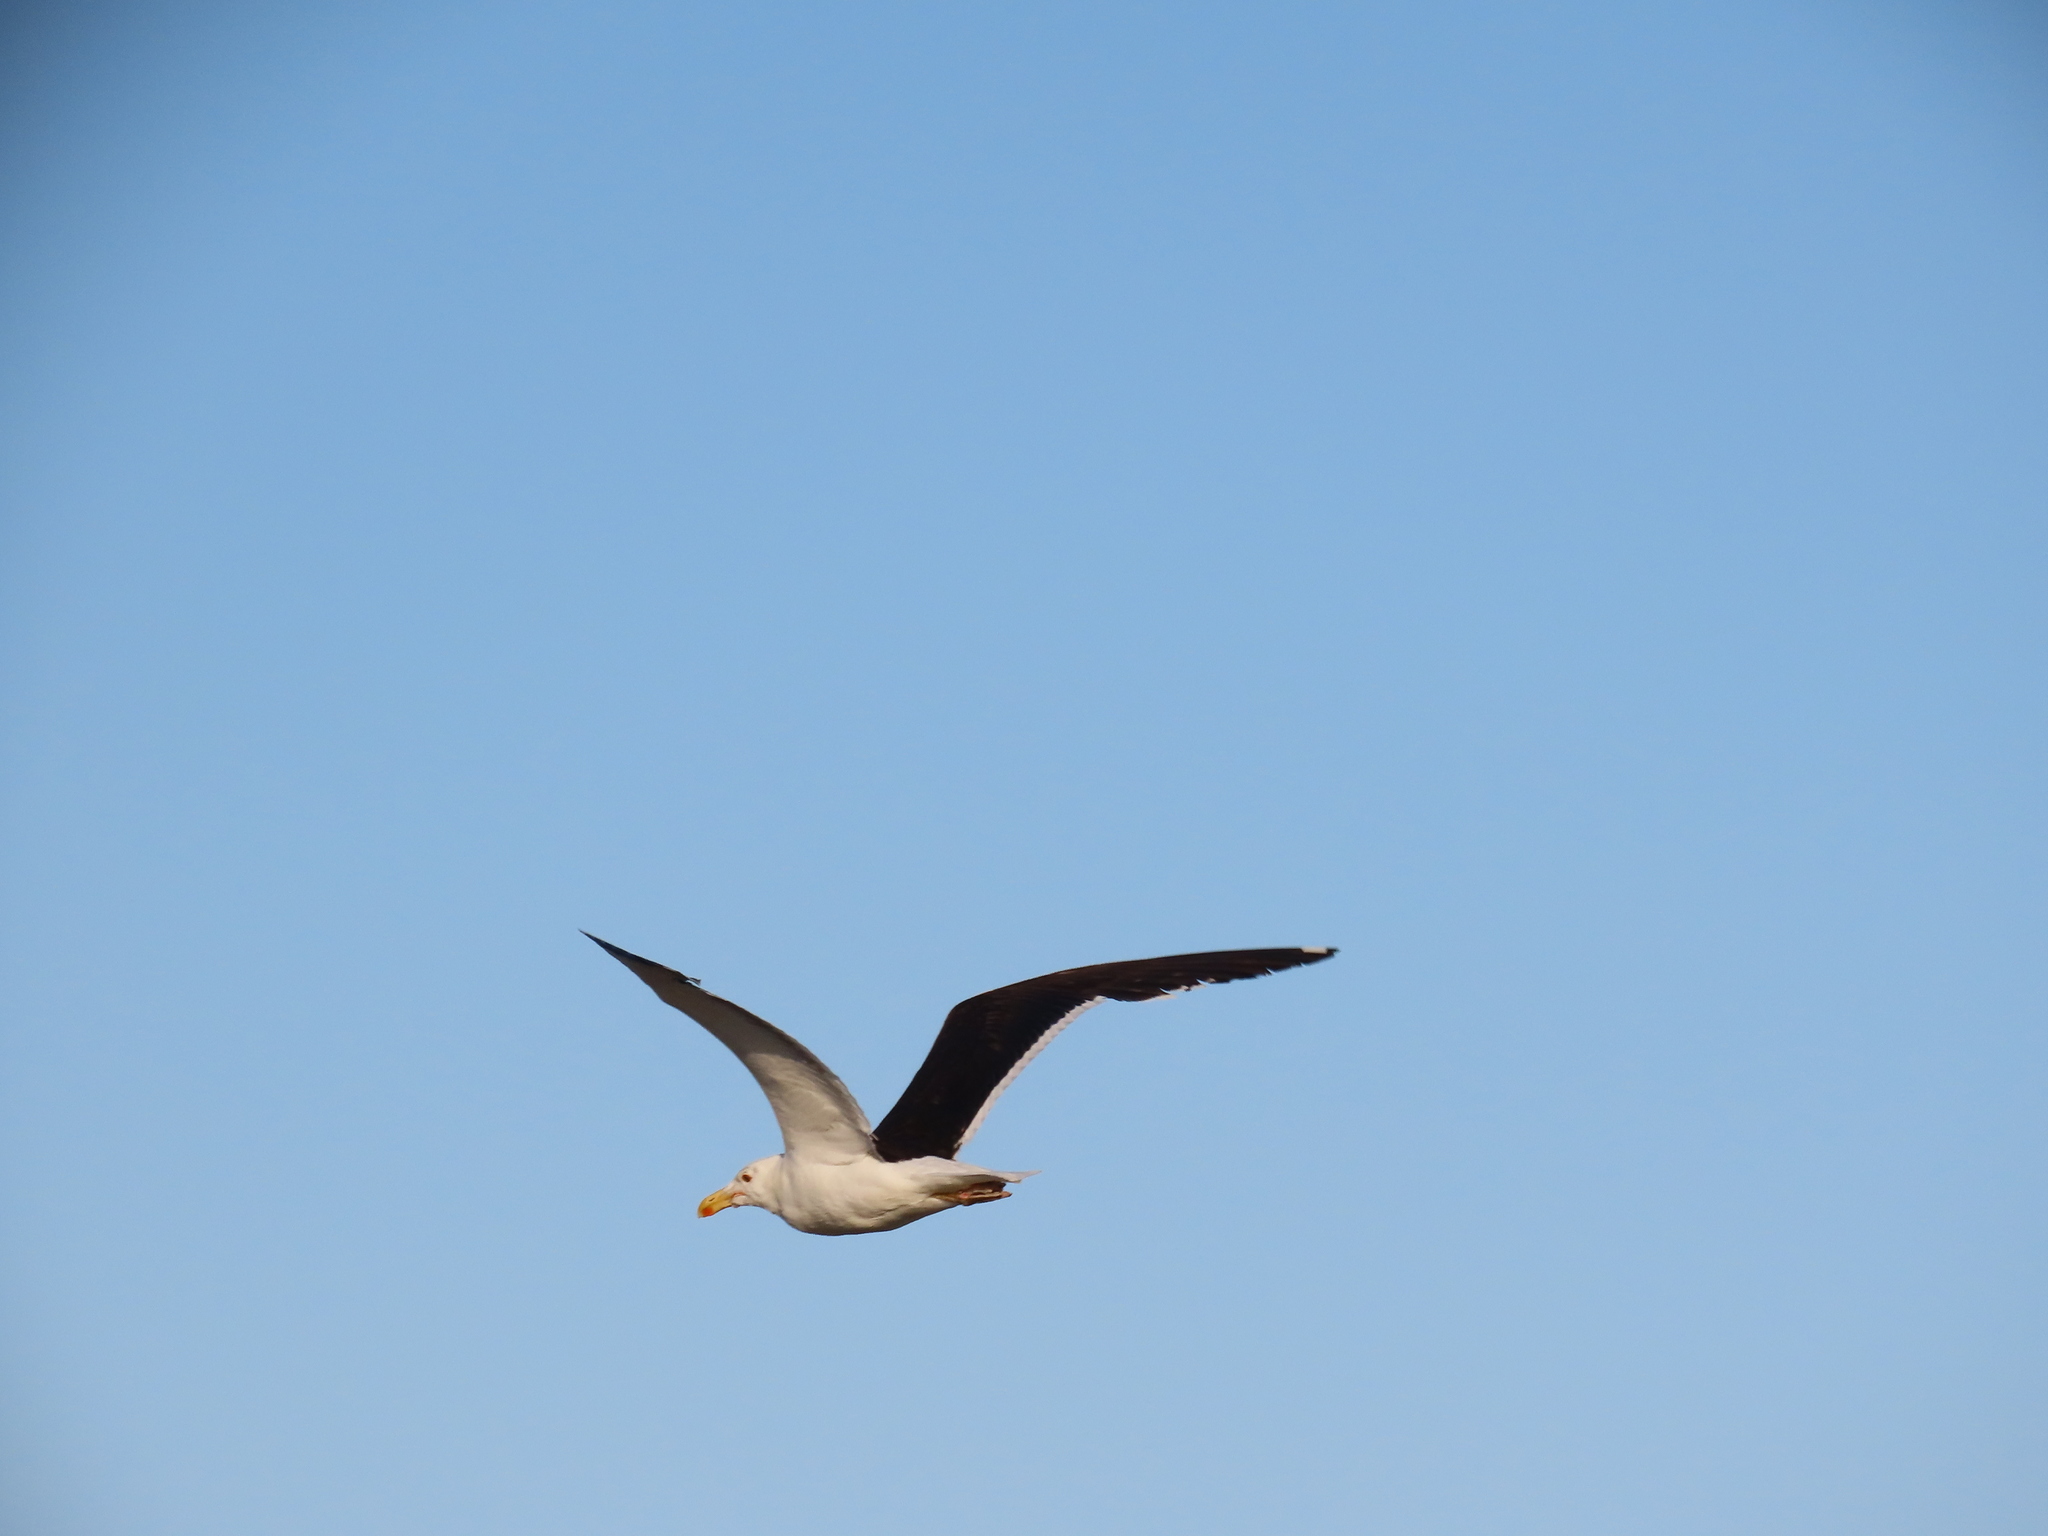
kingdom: Animalia
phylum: Chordata
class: Aves
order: Charadriiformes
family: Laridae
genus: Larus
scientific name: Larus dominicanus
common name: Kelp gull
